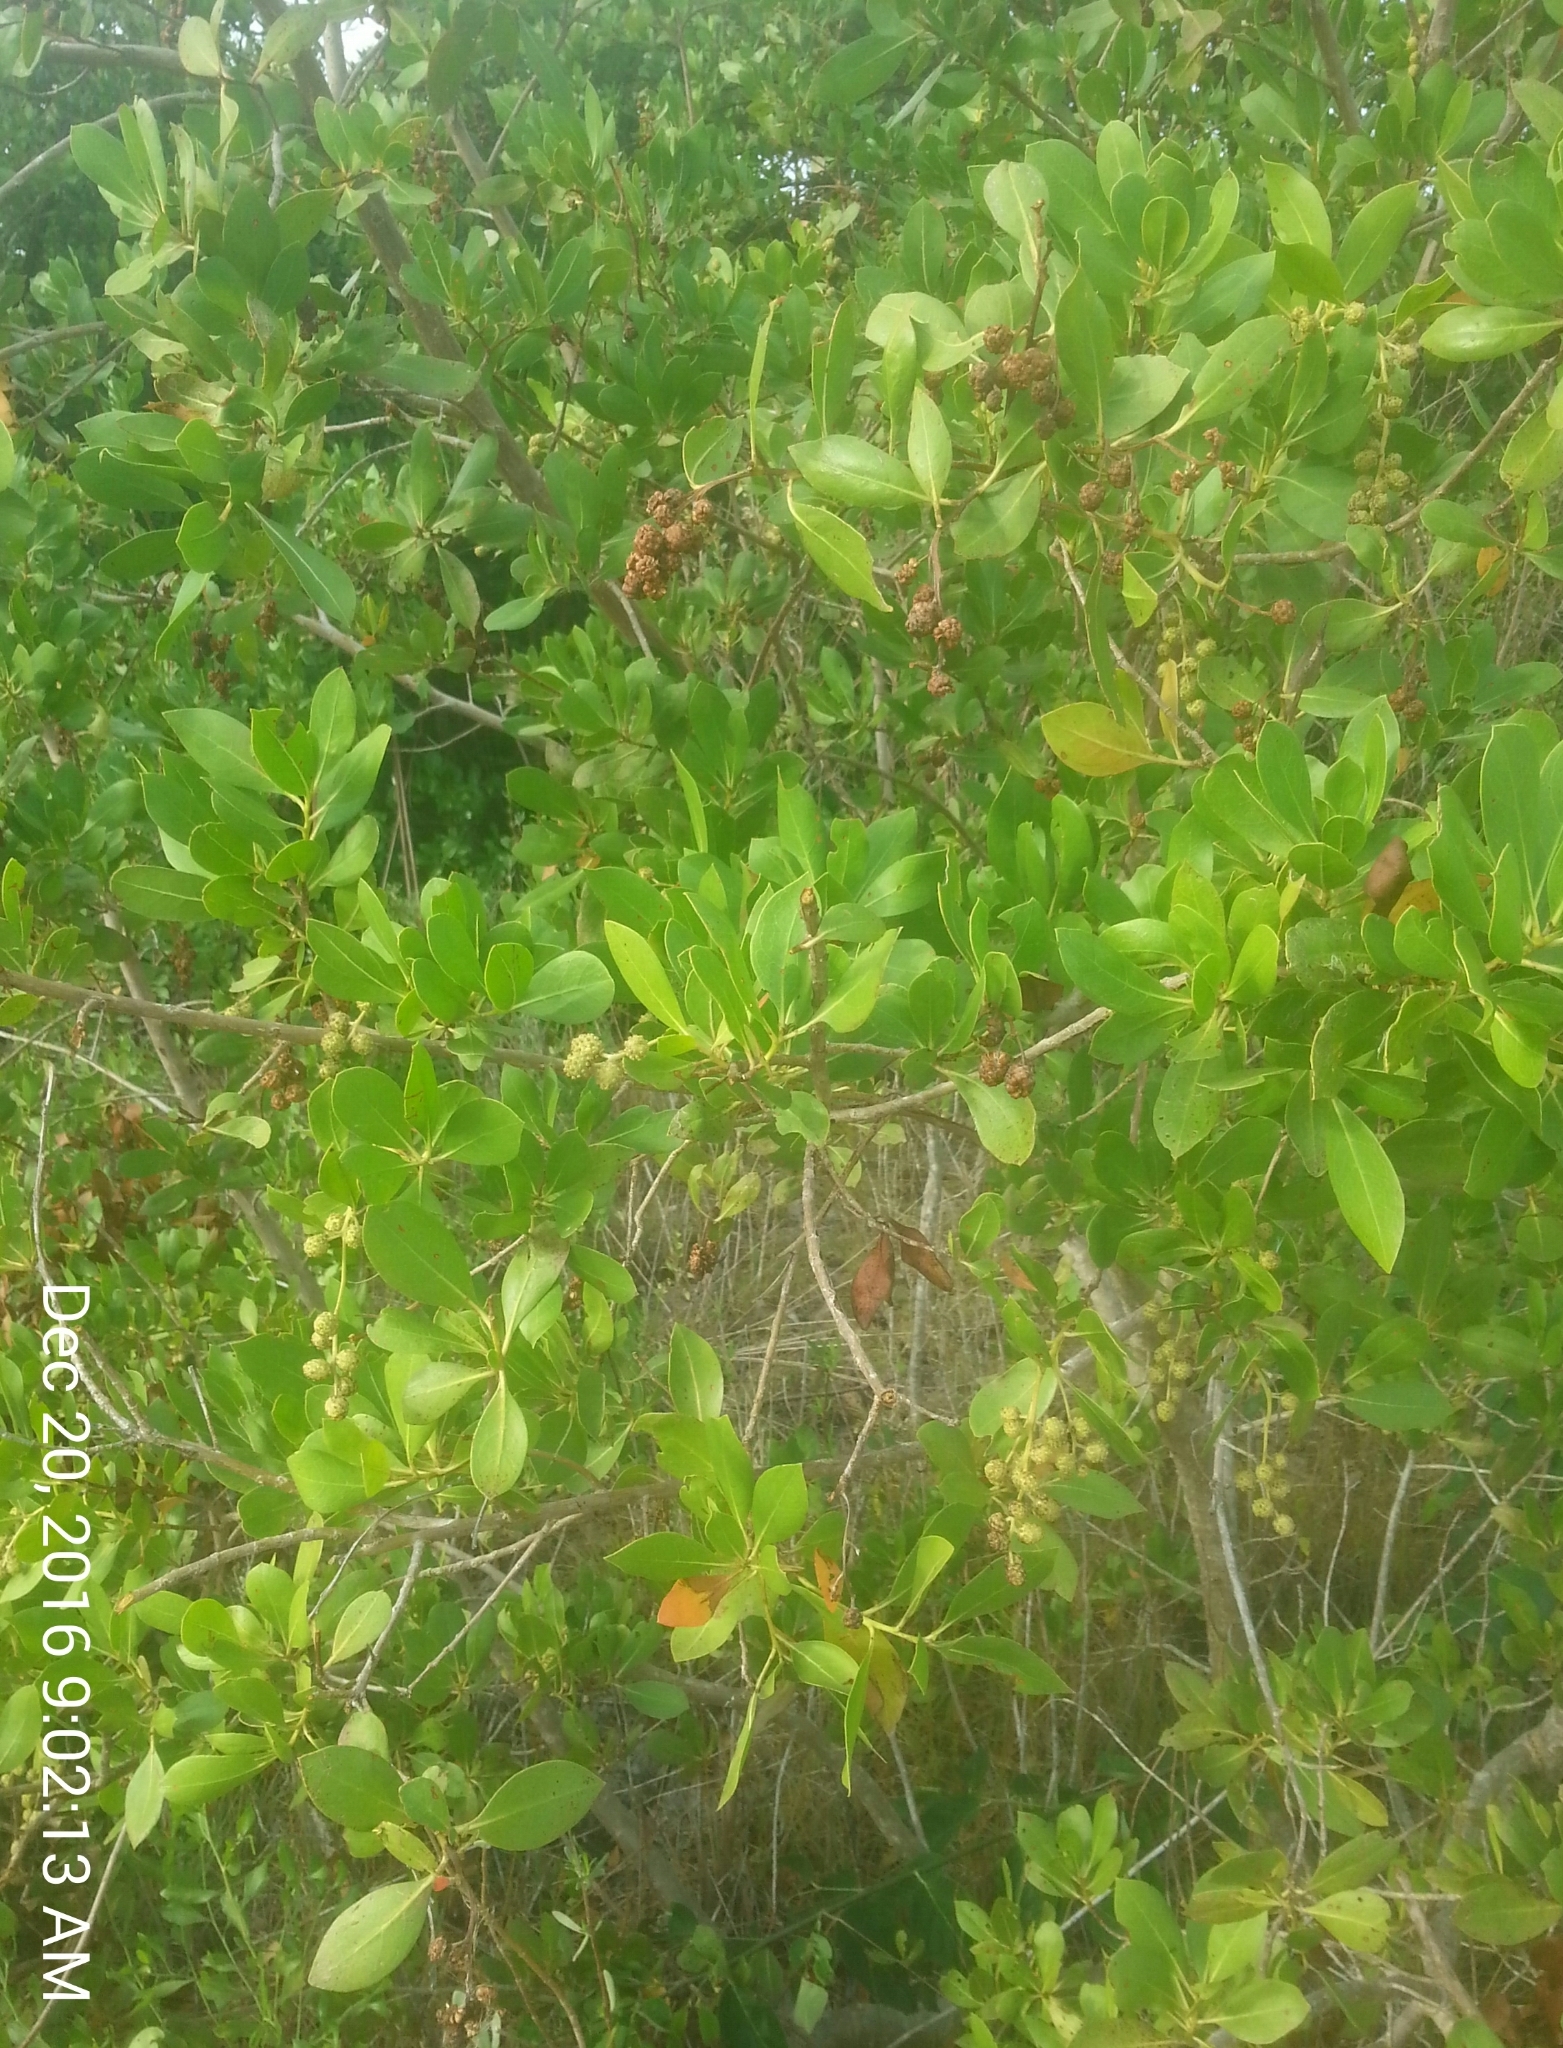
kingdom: Plantae
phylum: Tracheophyta
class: Magnoliopsida
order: Myrtales
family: Combretaceae
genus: Conocarpus
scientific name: Conocarpus erectus
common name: Button mangrove
